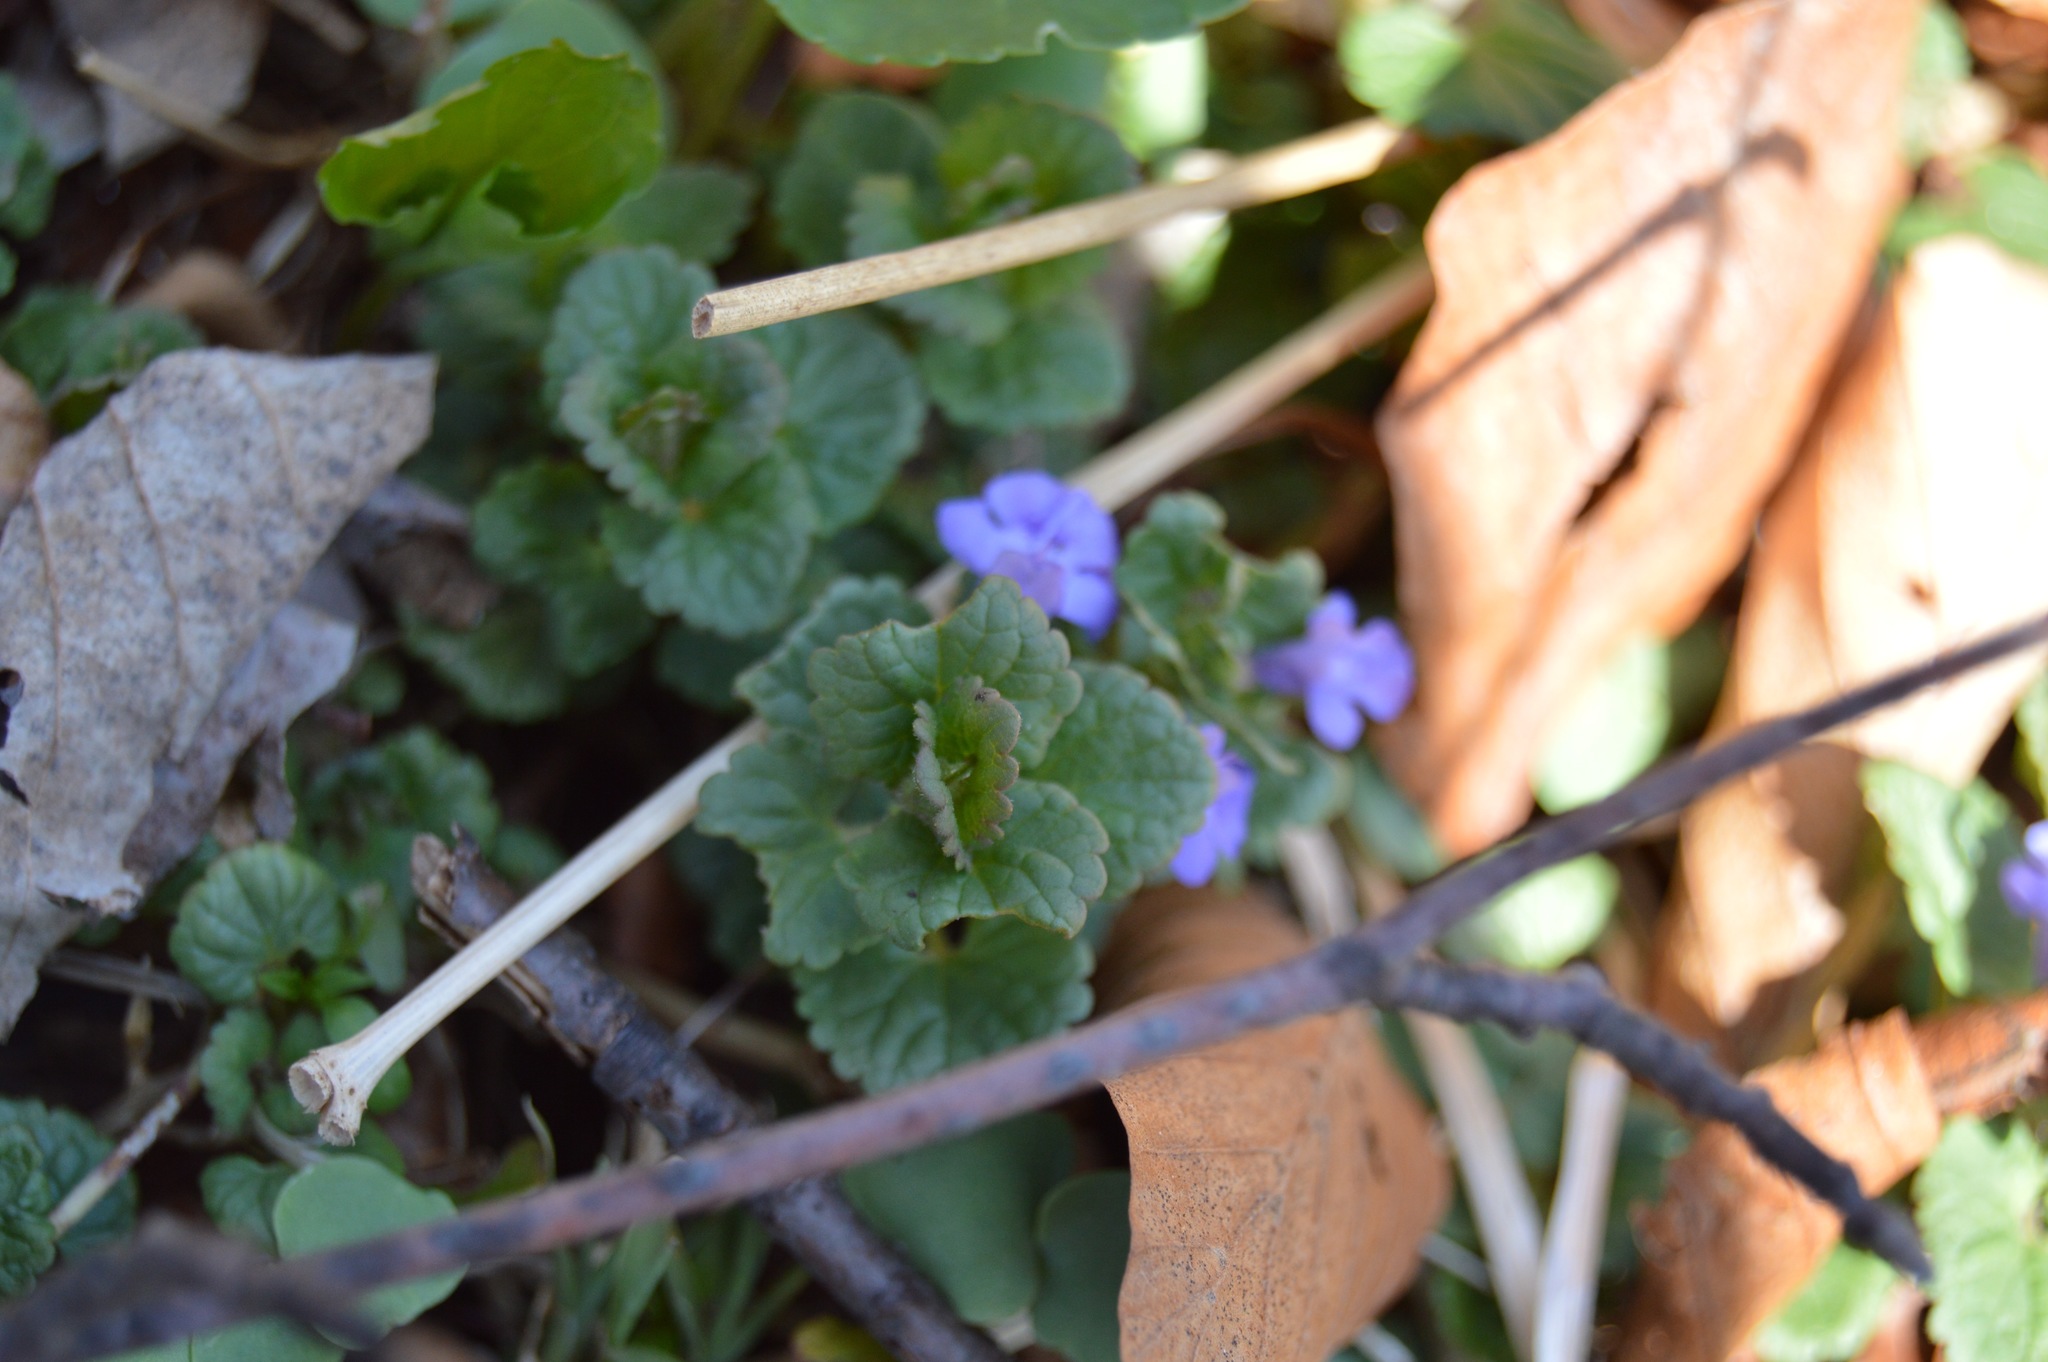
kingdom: Plantae
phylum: Tracheophyta
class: Magnoliopsida
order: Lamiales
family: Lamiaceae
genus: Glechoma
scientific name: Glechoma hederacea
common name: Ground ivy
